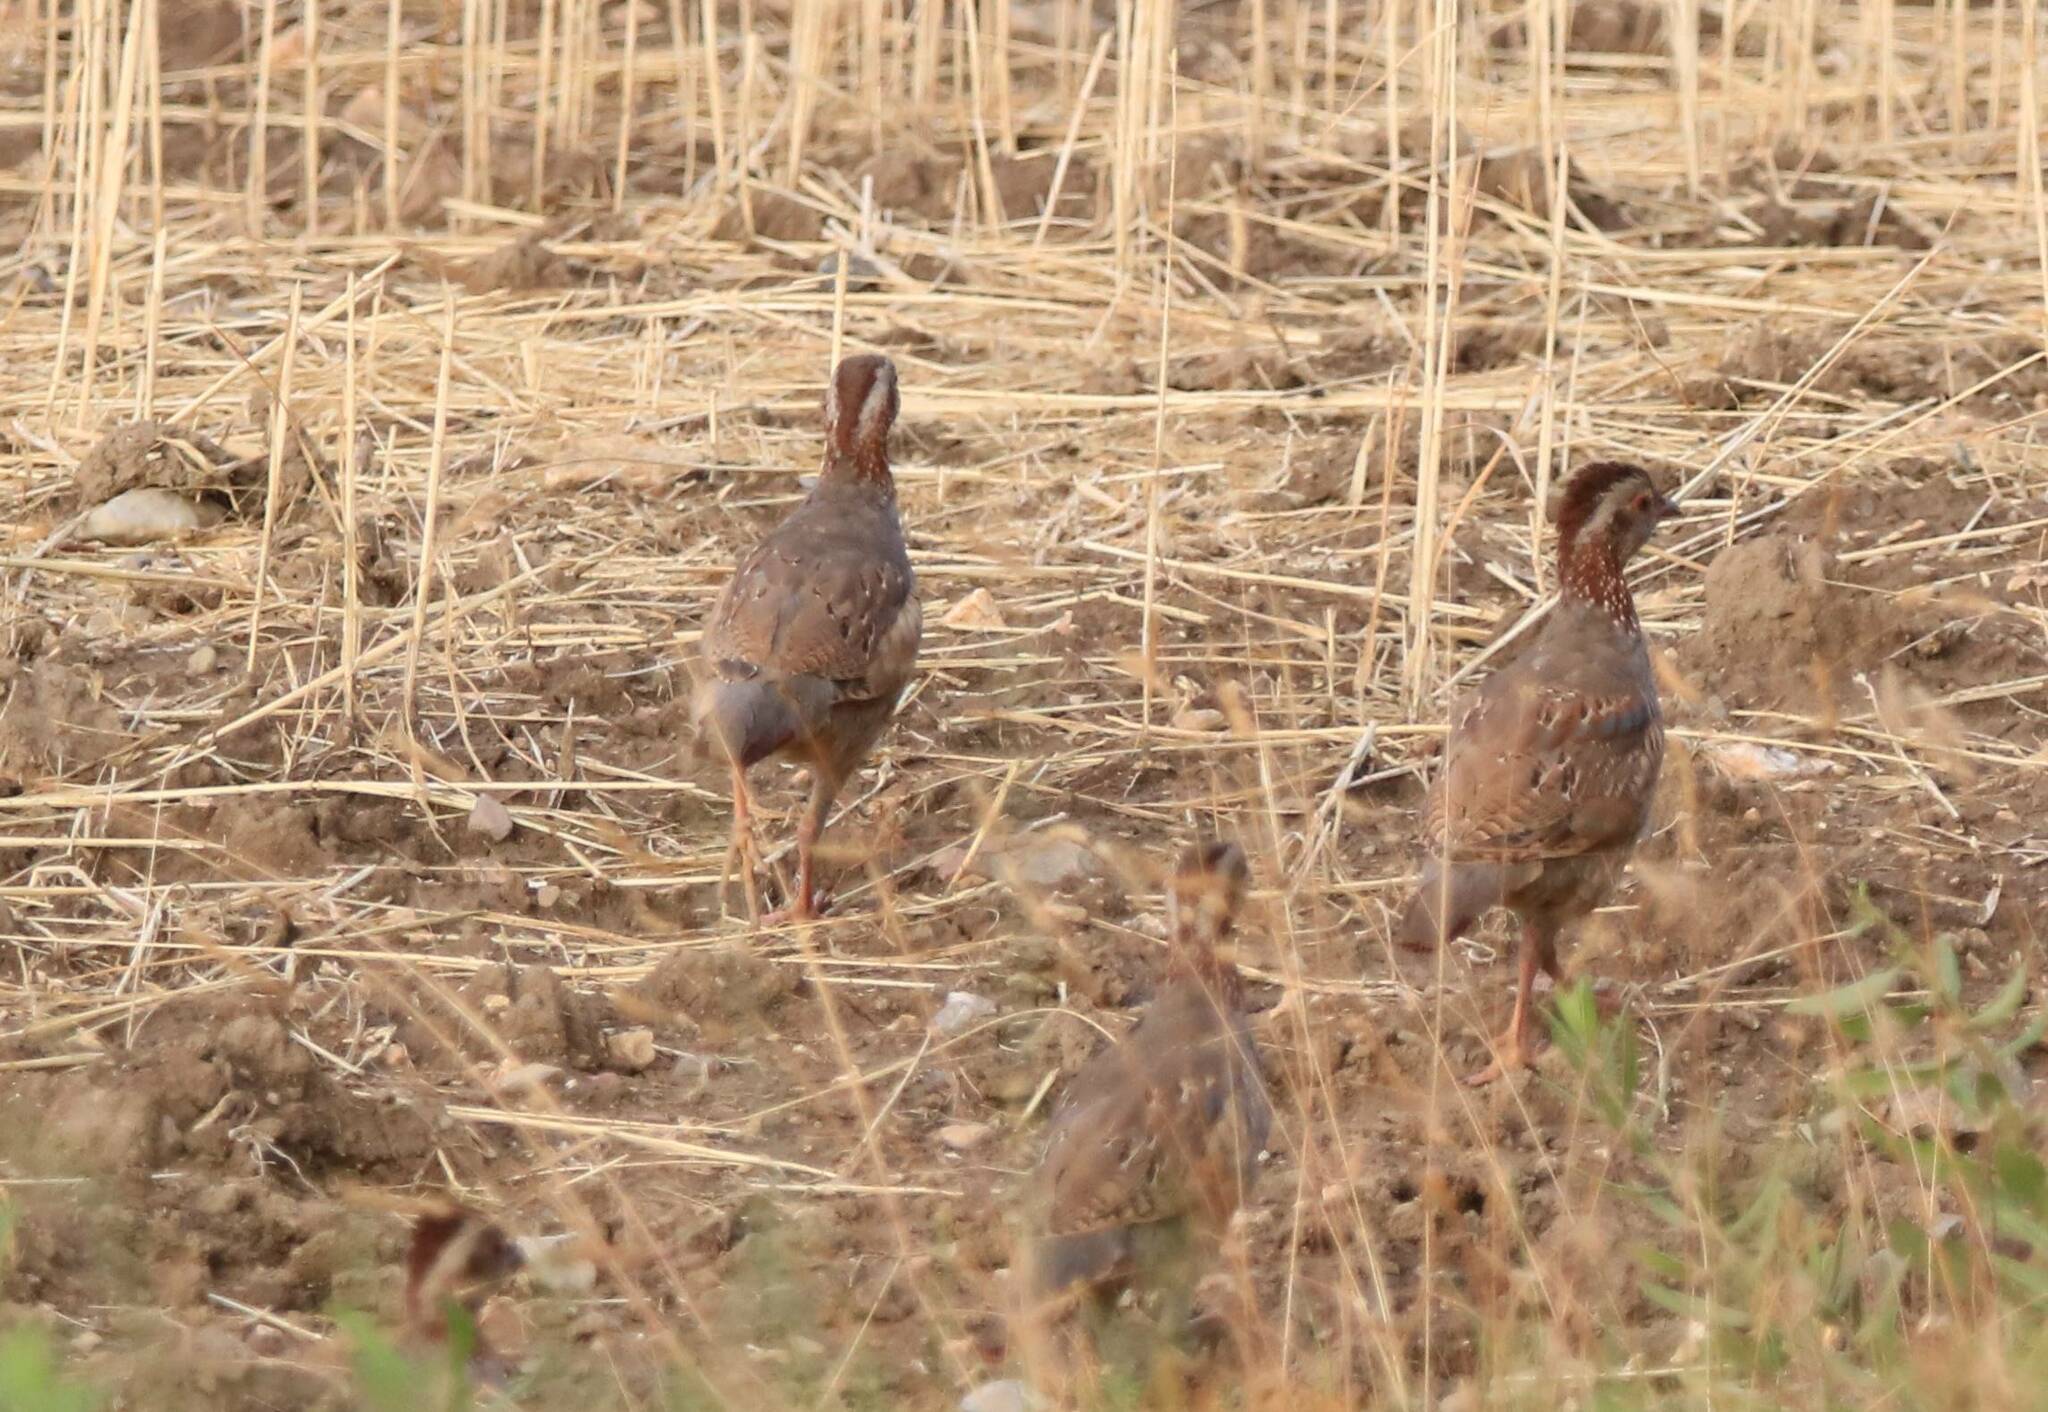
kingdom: Animalia
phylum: Chordata
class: Aves
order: Galliformes
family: Phasianidae
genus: Alectoris
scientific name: Alectoris barbara
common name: Barbary partridge
